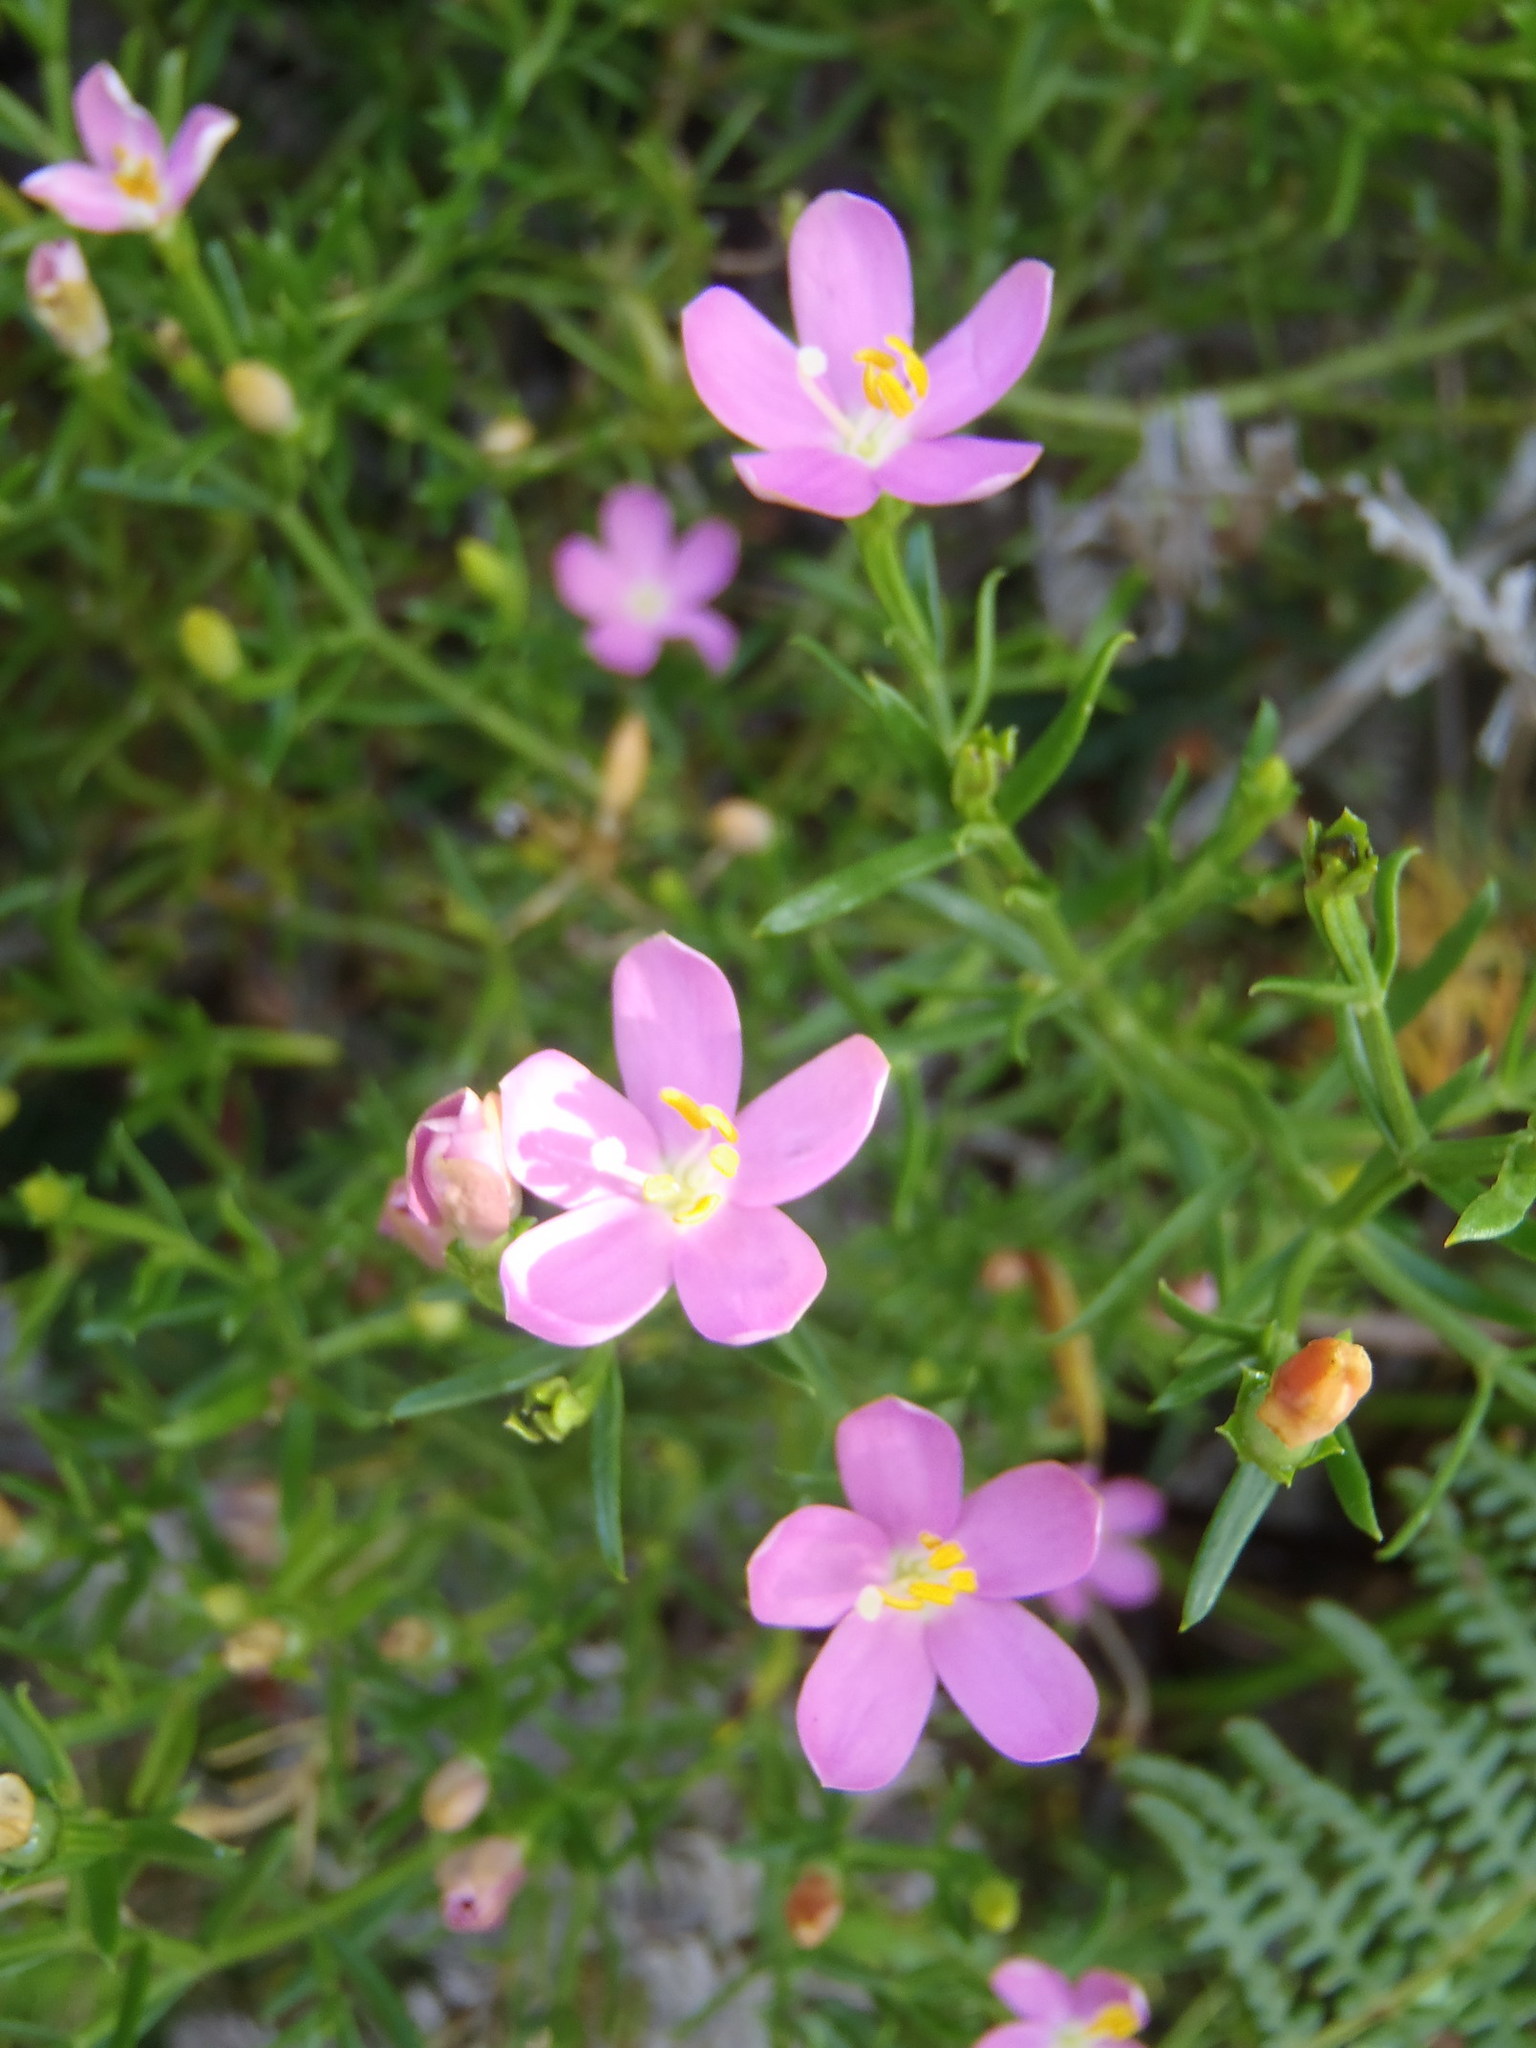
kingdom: Plantae
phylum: Tracheophyta
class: Magnoliopsida
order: Gentianales
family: Gentianaceae
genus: Chironia
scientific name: Chironia baccifera
